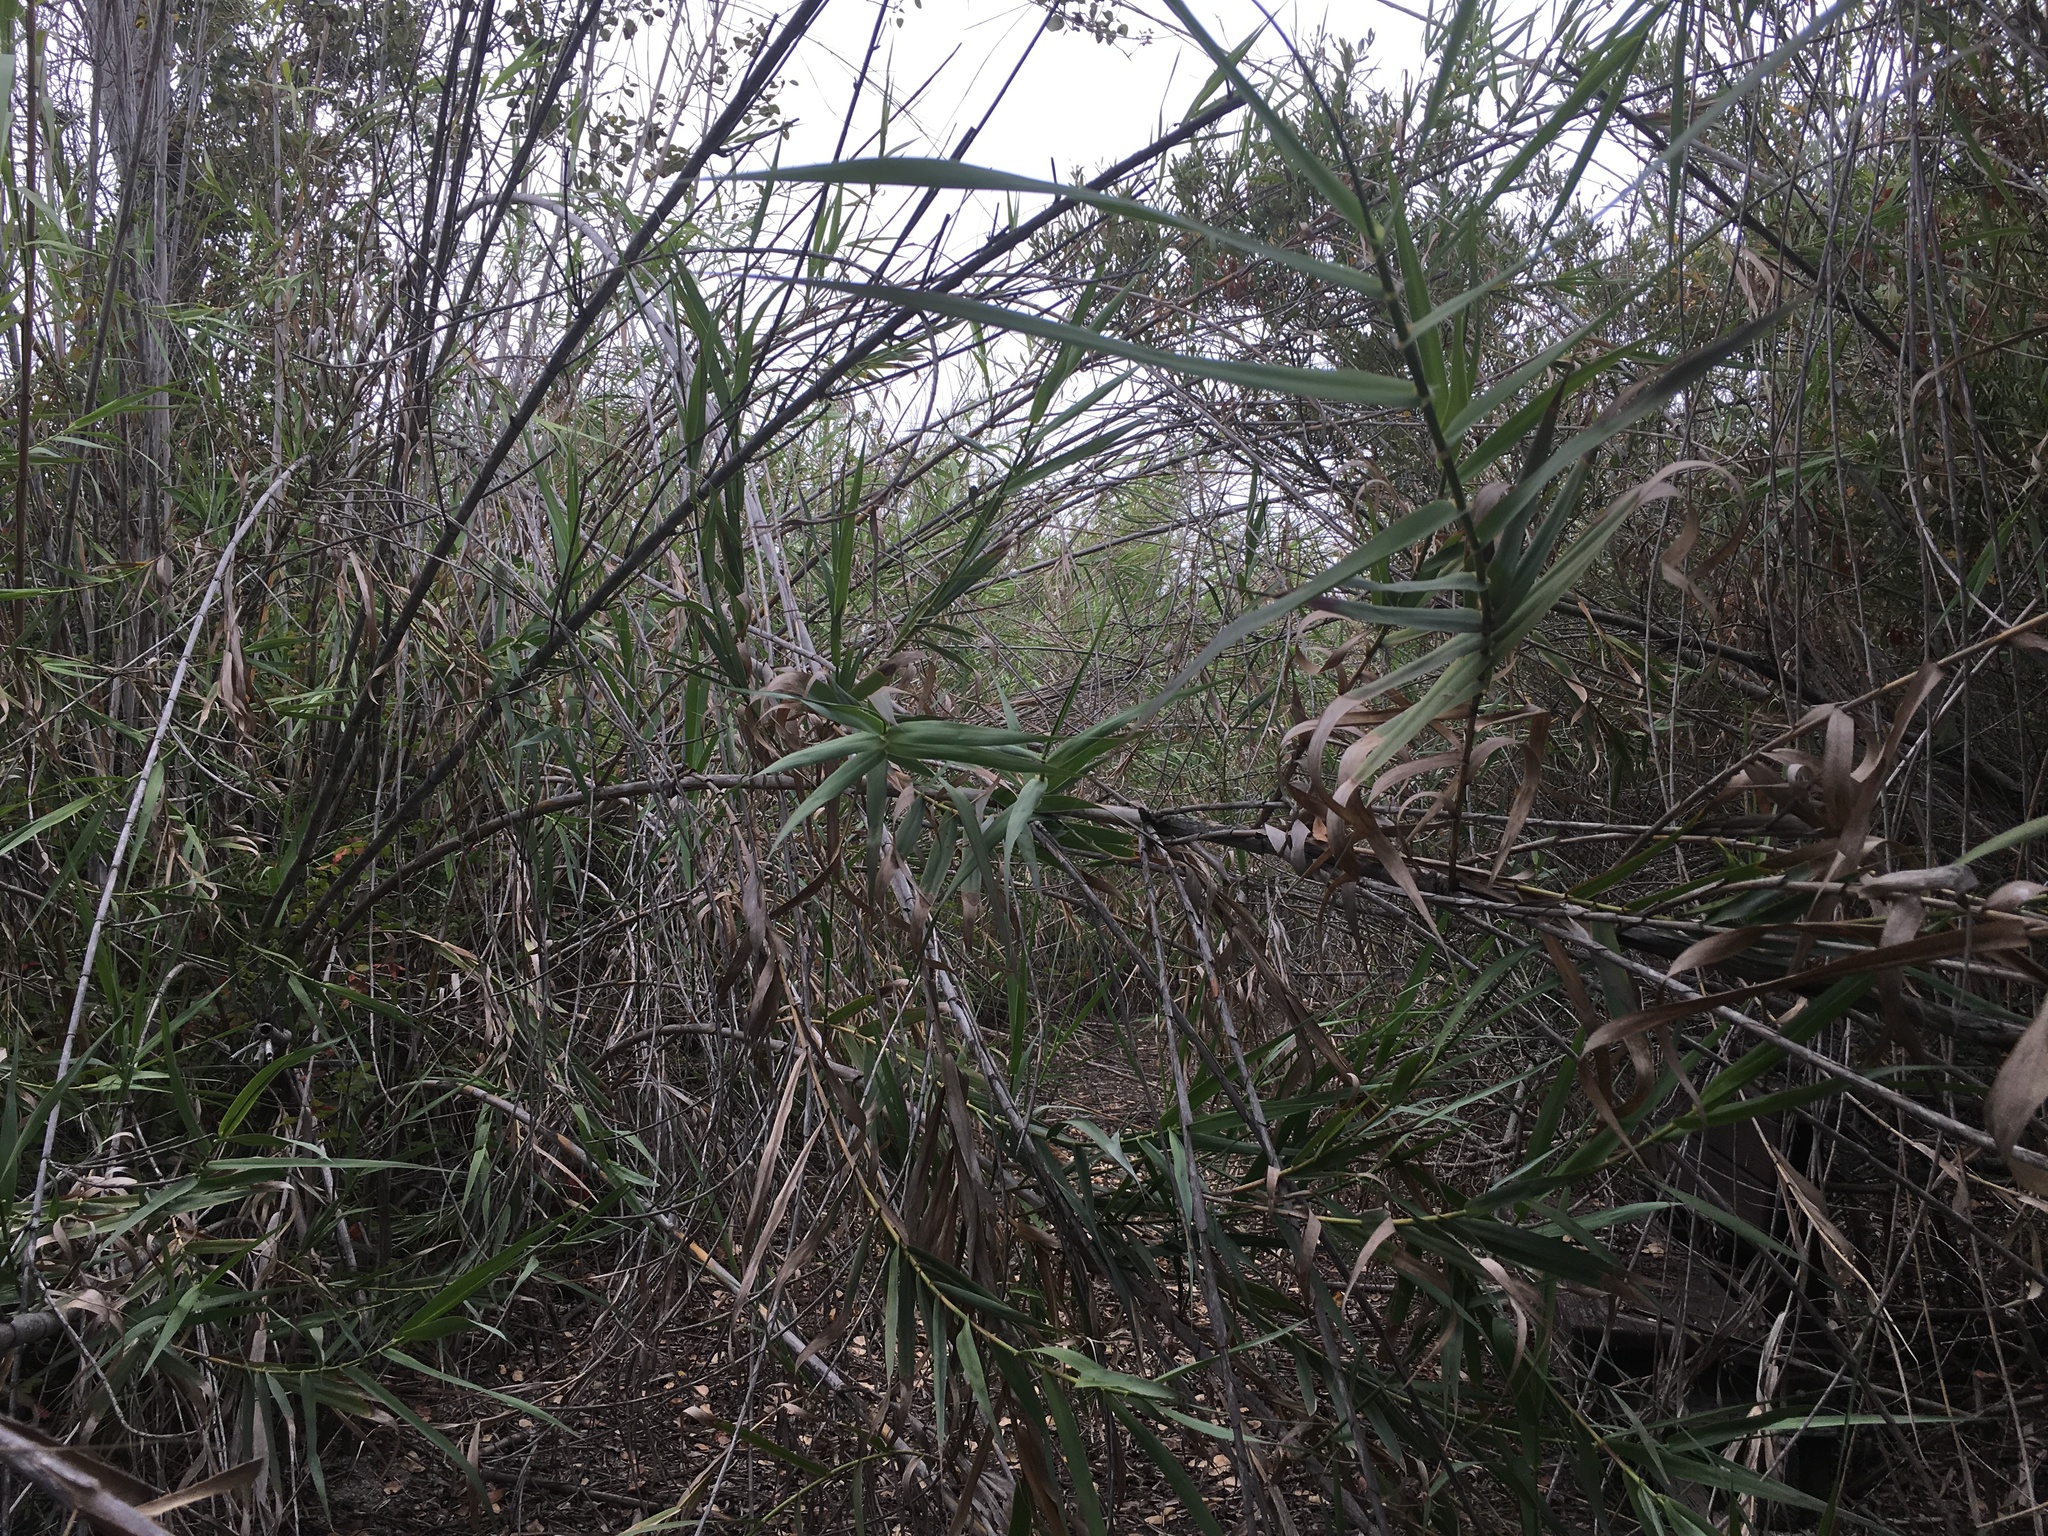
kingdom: Plantae
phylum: Tracheophyta
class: Liliopsida
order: Poales
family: Poaceae
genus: Arundo
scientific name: Arundo donax
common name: Giant reed
